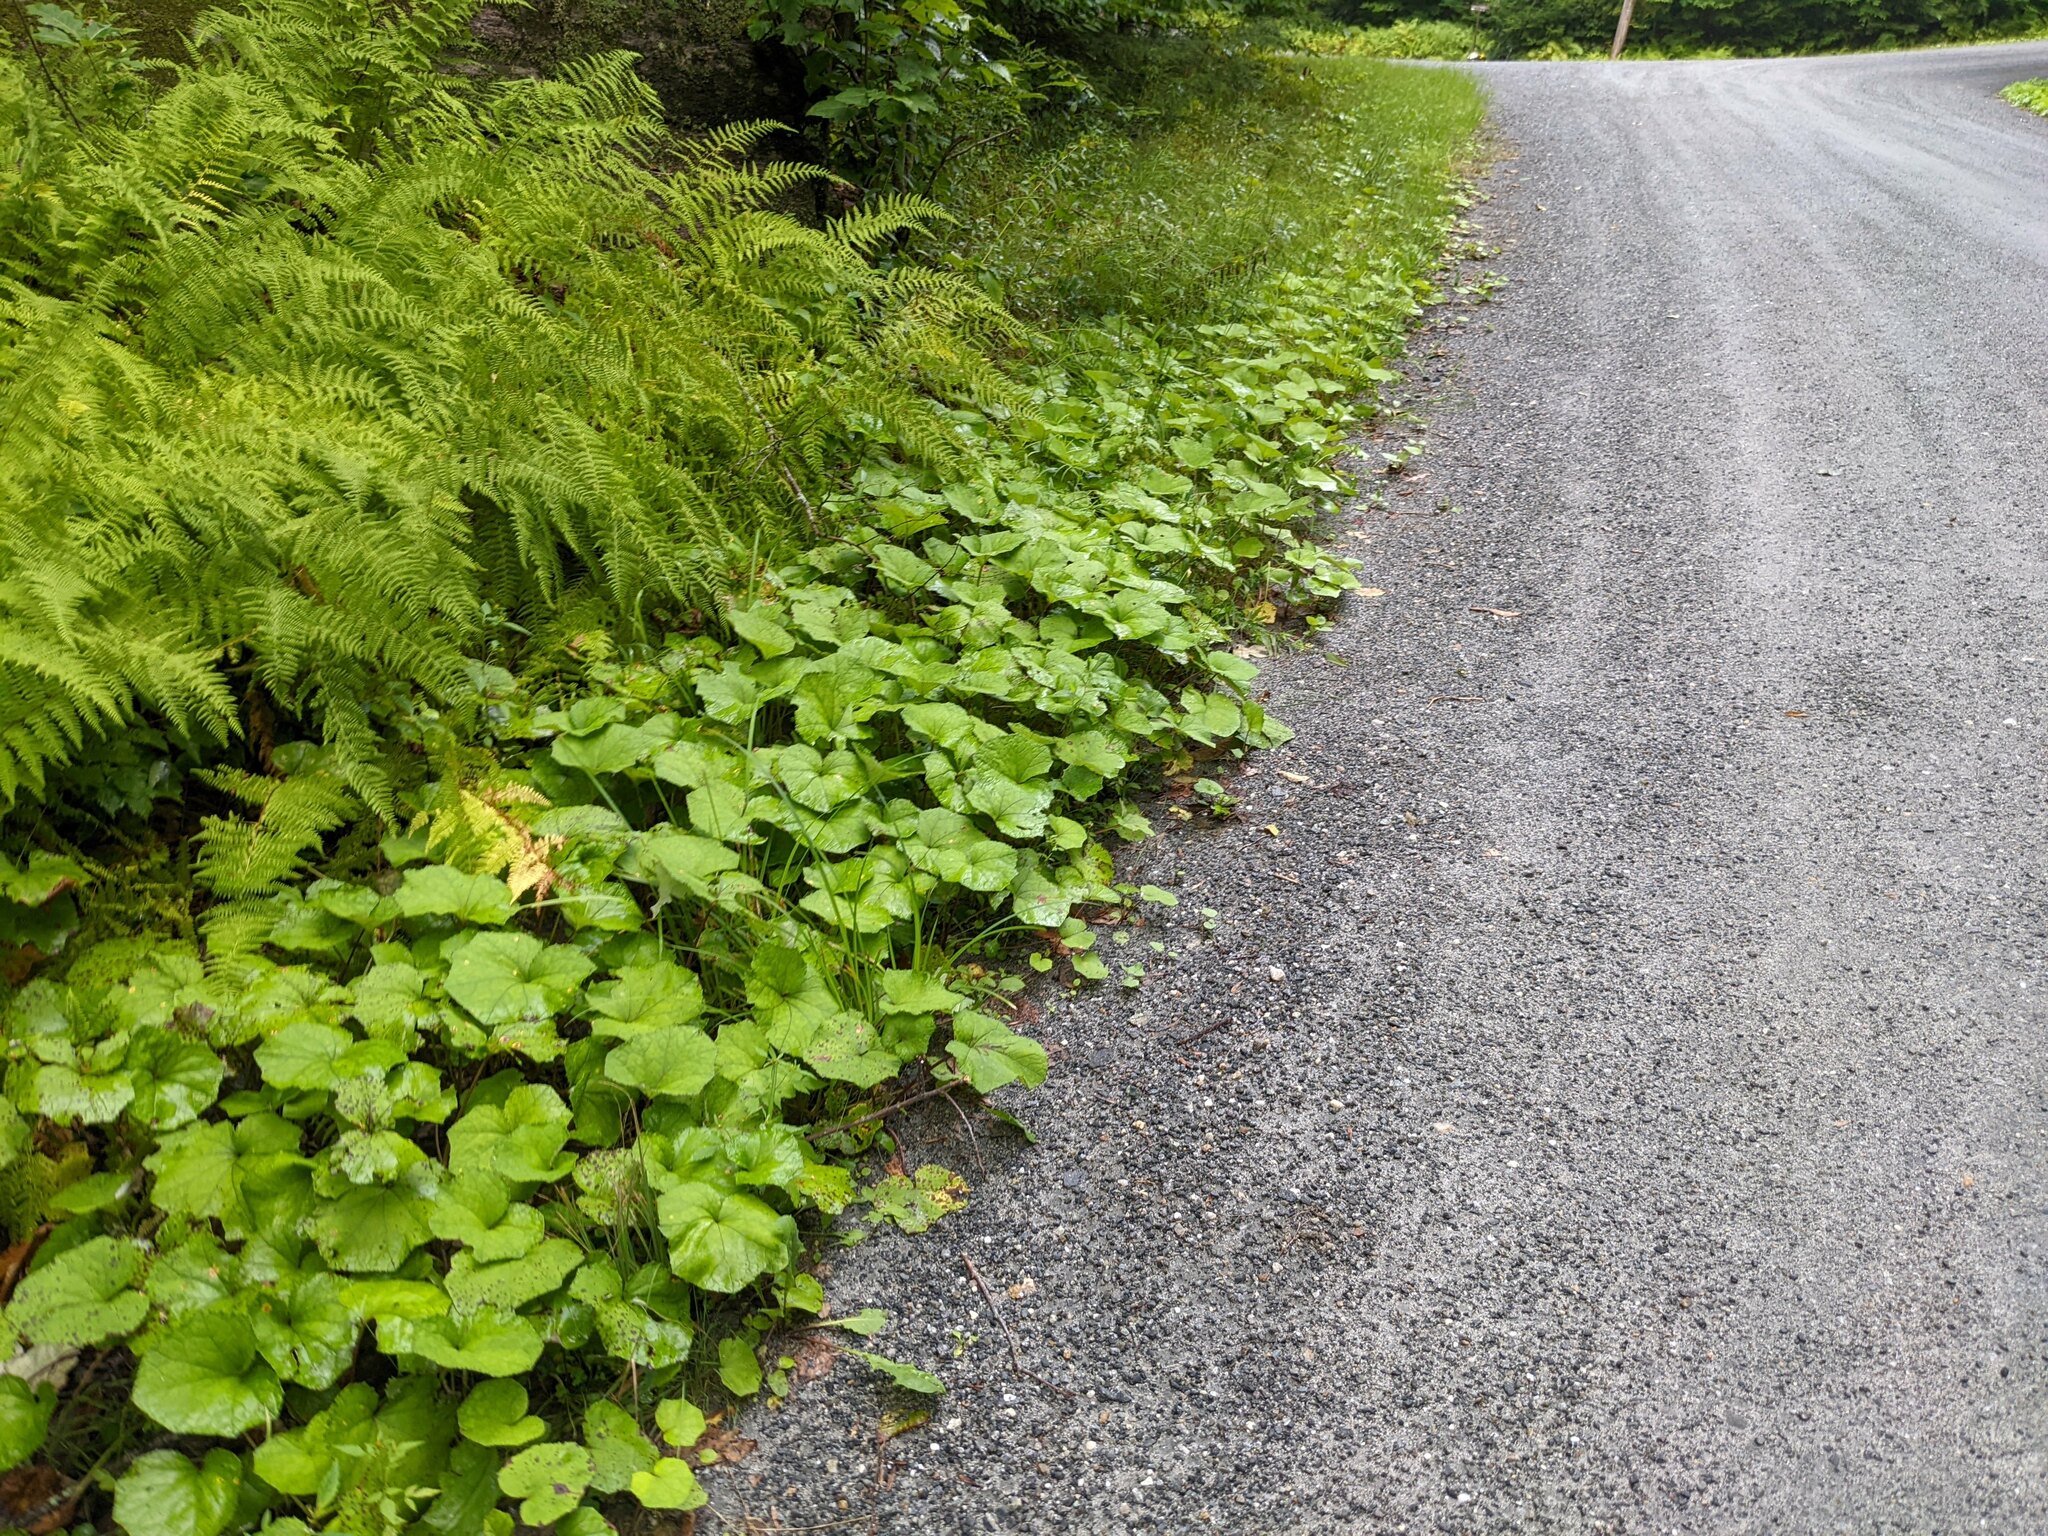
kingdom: Plantae
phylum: Tracheophyta
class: Magnoliopsida
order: Asterales
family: Asteraceae
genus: Tussilago
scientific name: Tussilago farfara
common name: Coltsfoot
